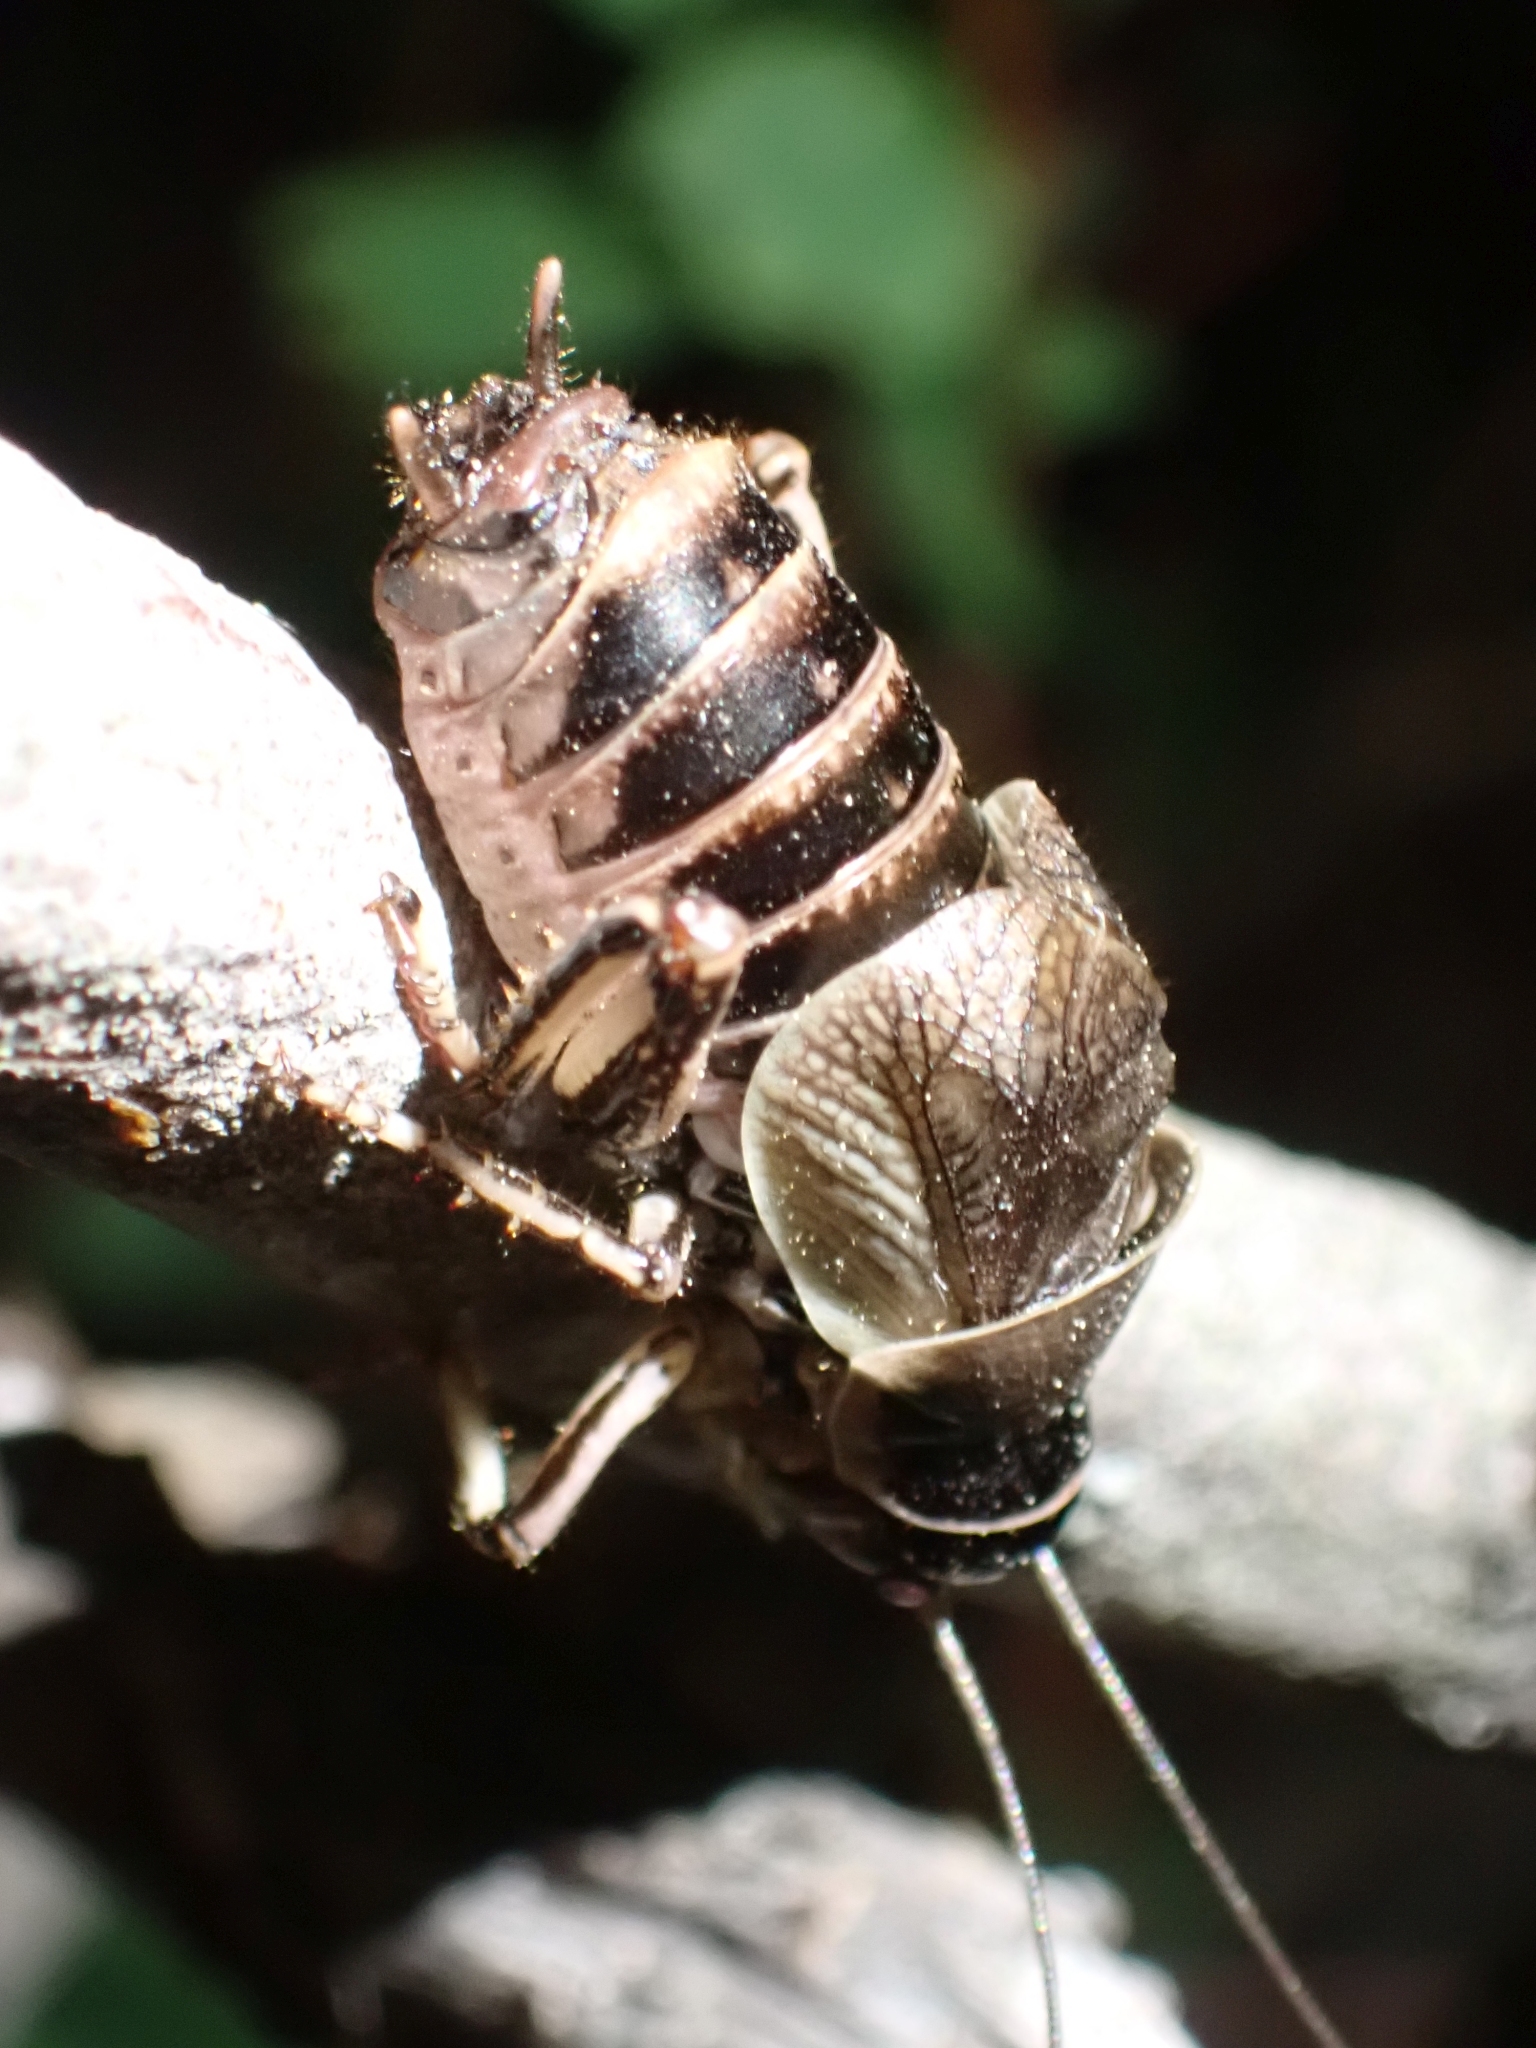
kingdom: Animalia
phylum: Arthropoda
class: Insecta
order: Orthoptera
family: Prophalangopsidae
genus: Cyphoderris
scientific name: Cyphoderris buckelli
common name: Buckell’s grig
